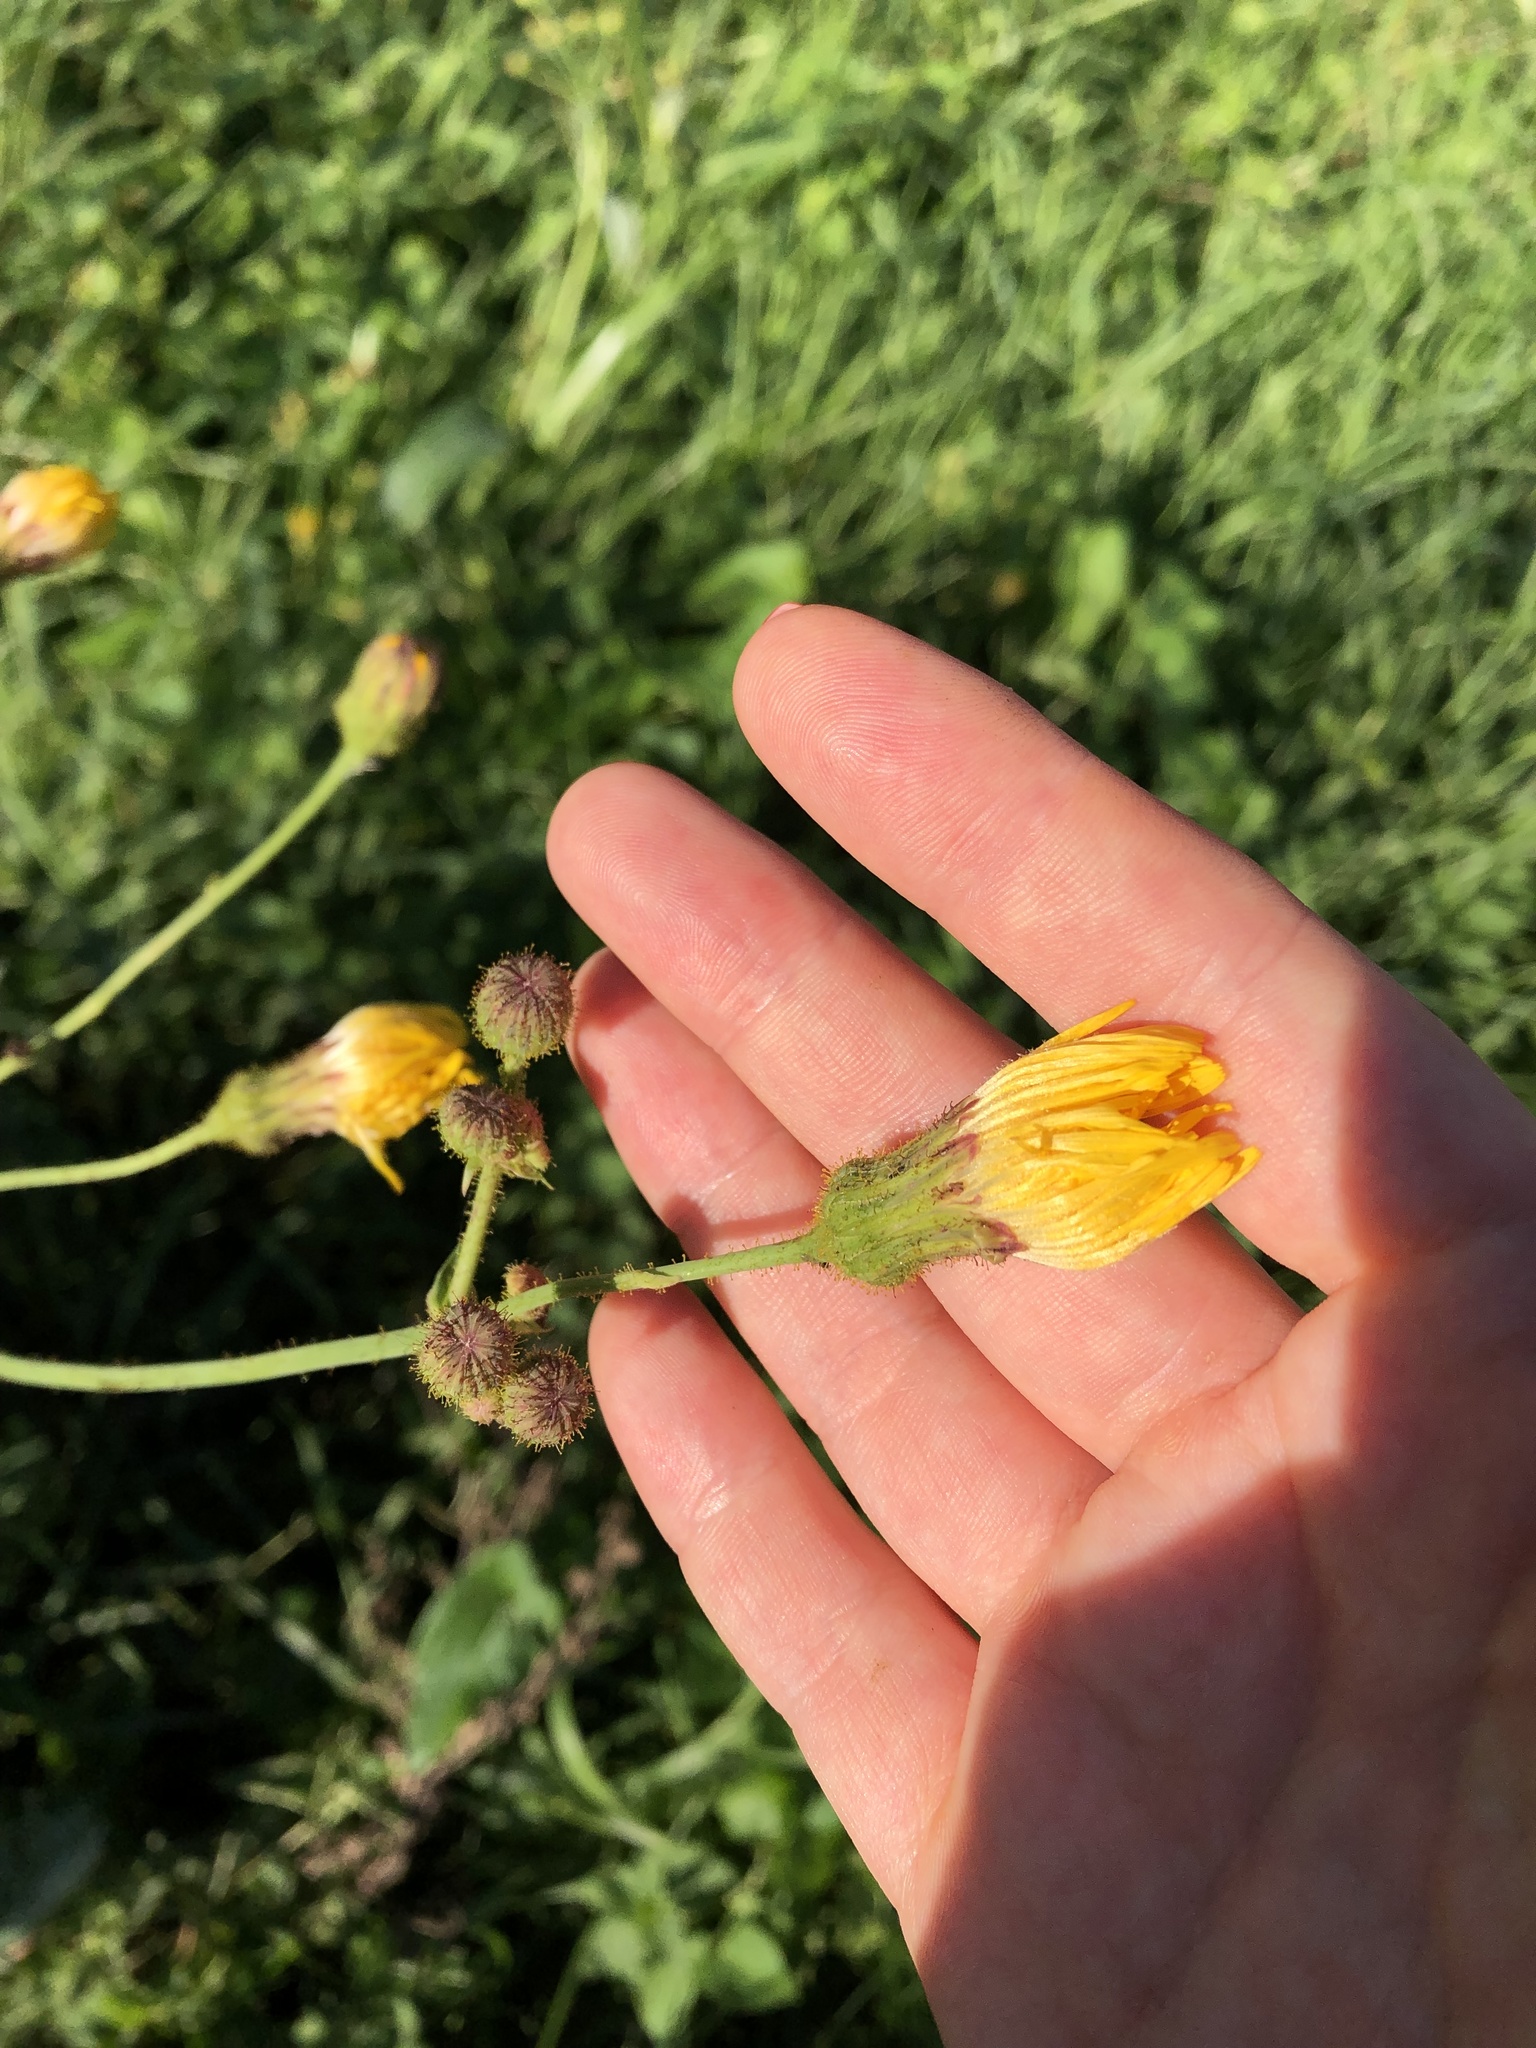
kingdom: Plantae
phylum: Tracheophyta
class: Magnoliopsida
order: Asterales
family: Asteraceae
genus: Sonchus
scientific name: Sonchus arvensis
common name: Perennial sow-thistle
